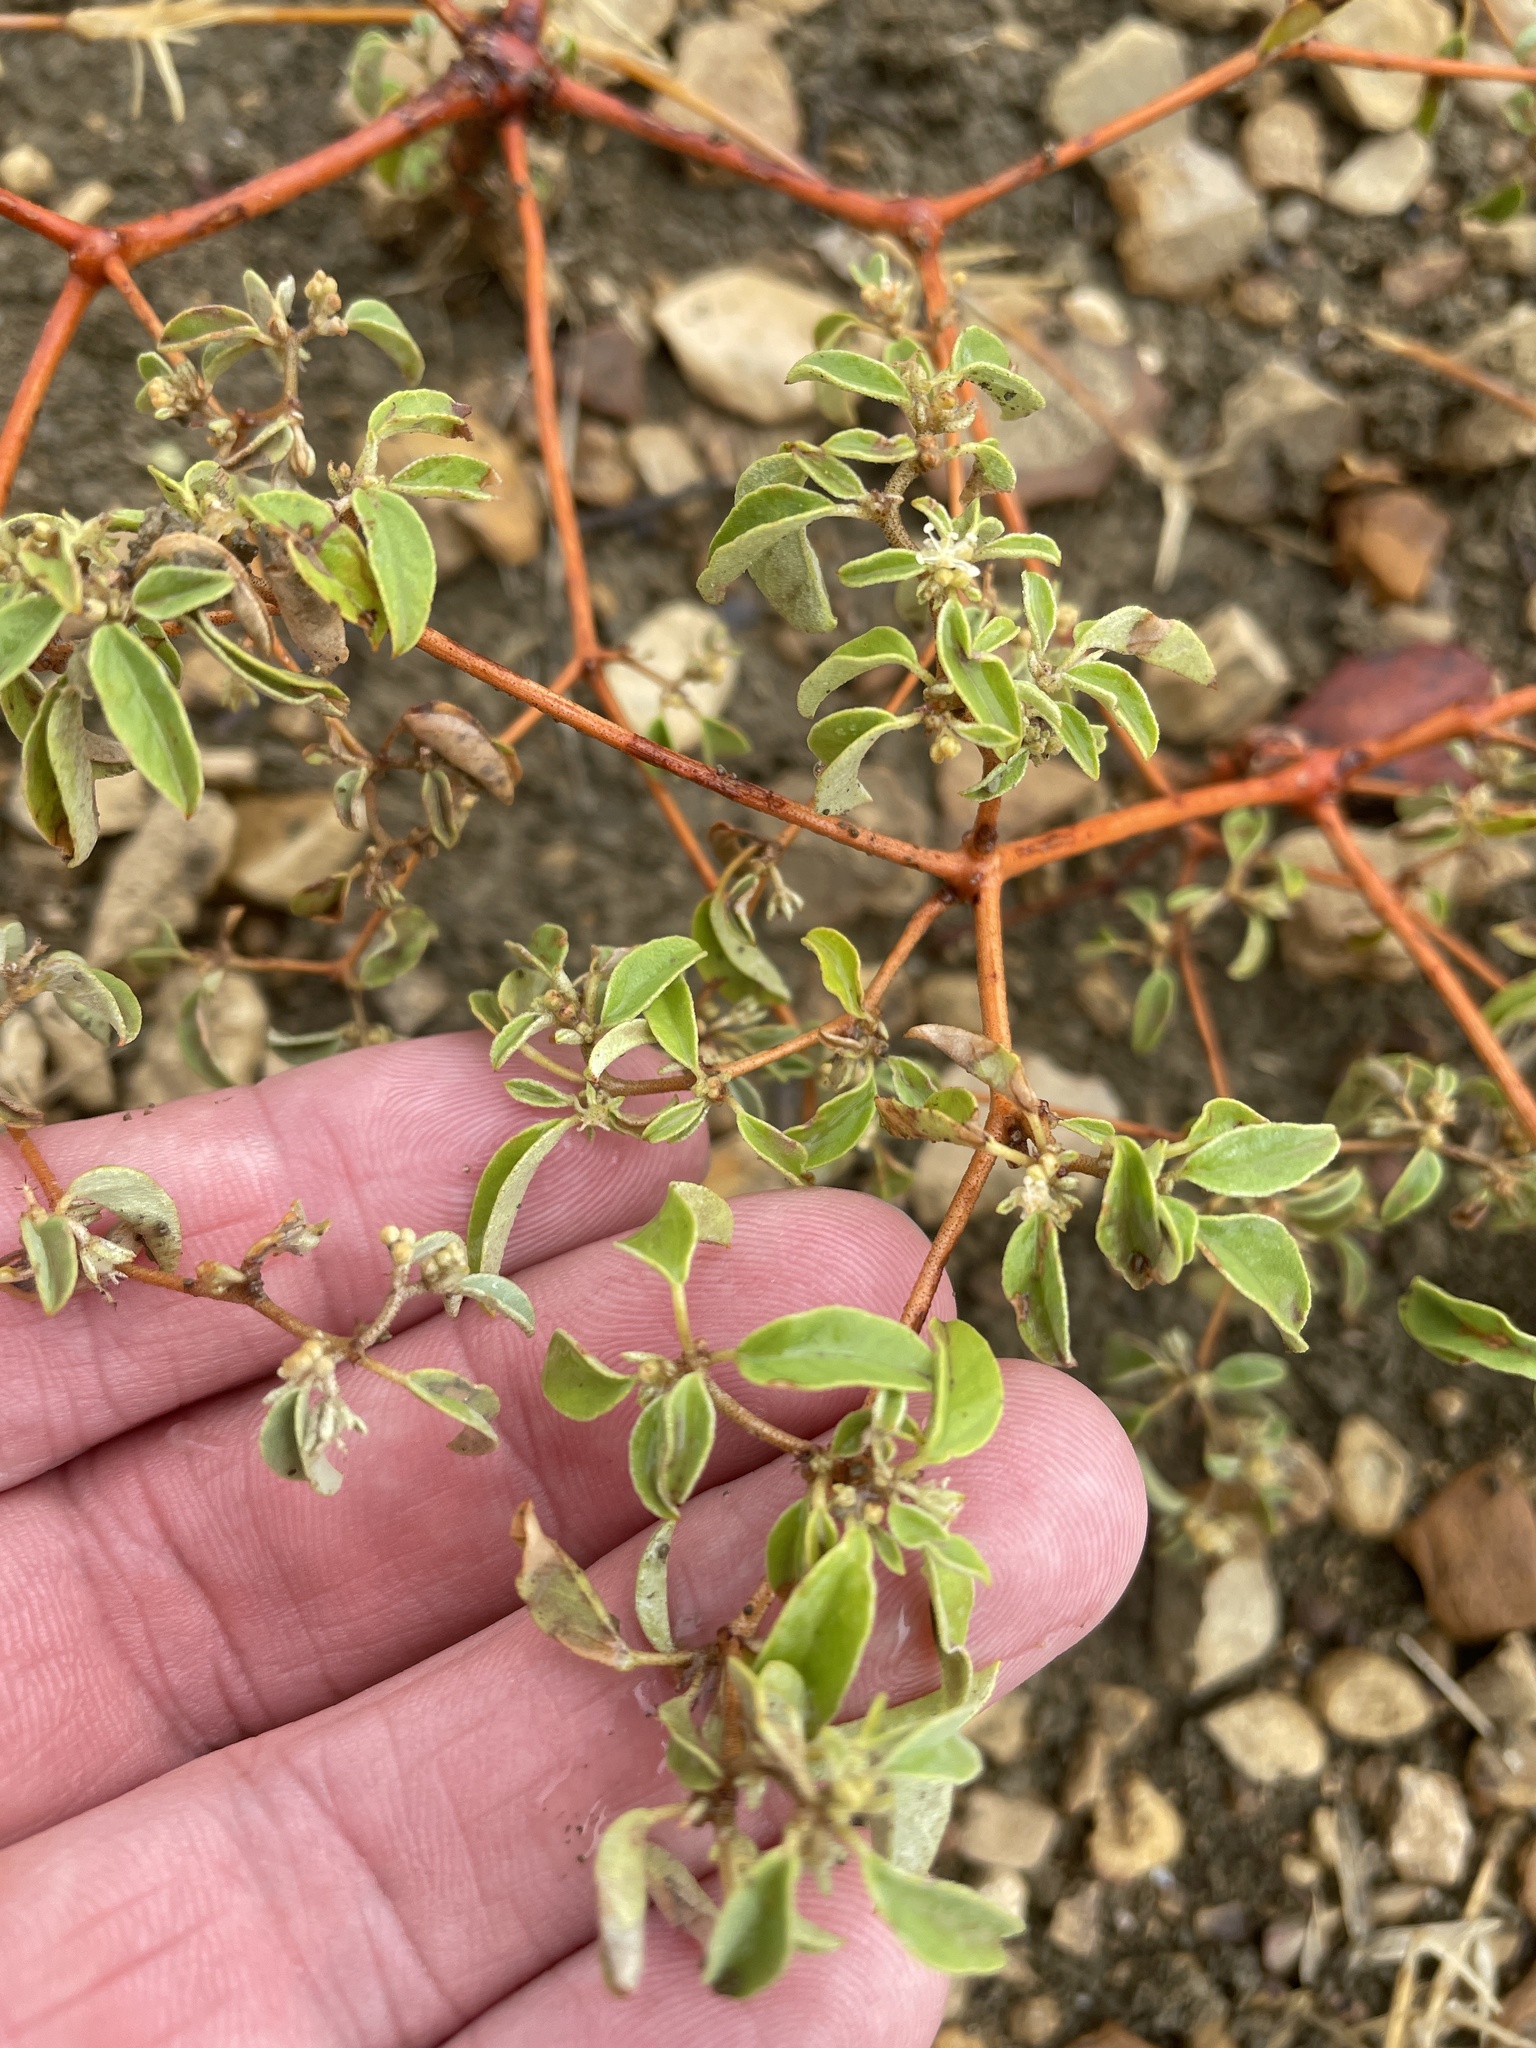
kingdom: Plantae
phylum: Tracheophyta
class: Magnoliopsida
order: Malpighiales
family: Euphorbiaceae
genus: Croton
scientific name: Croton monanthogynus
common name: One-seed croton
